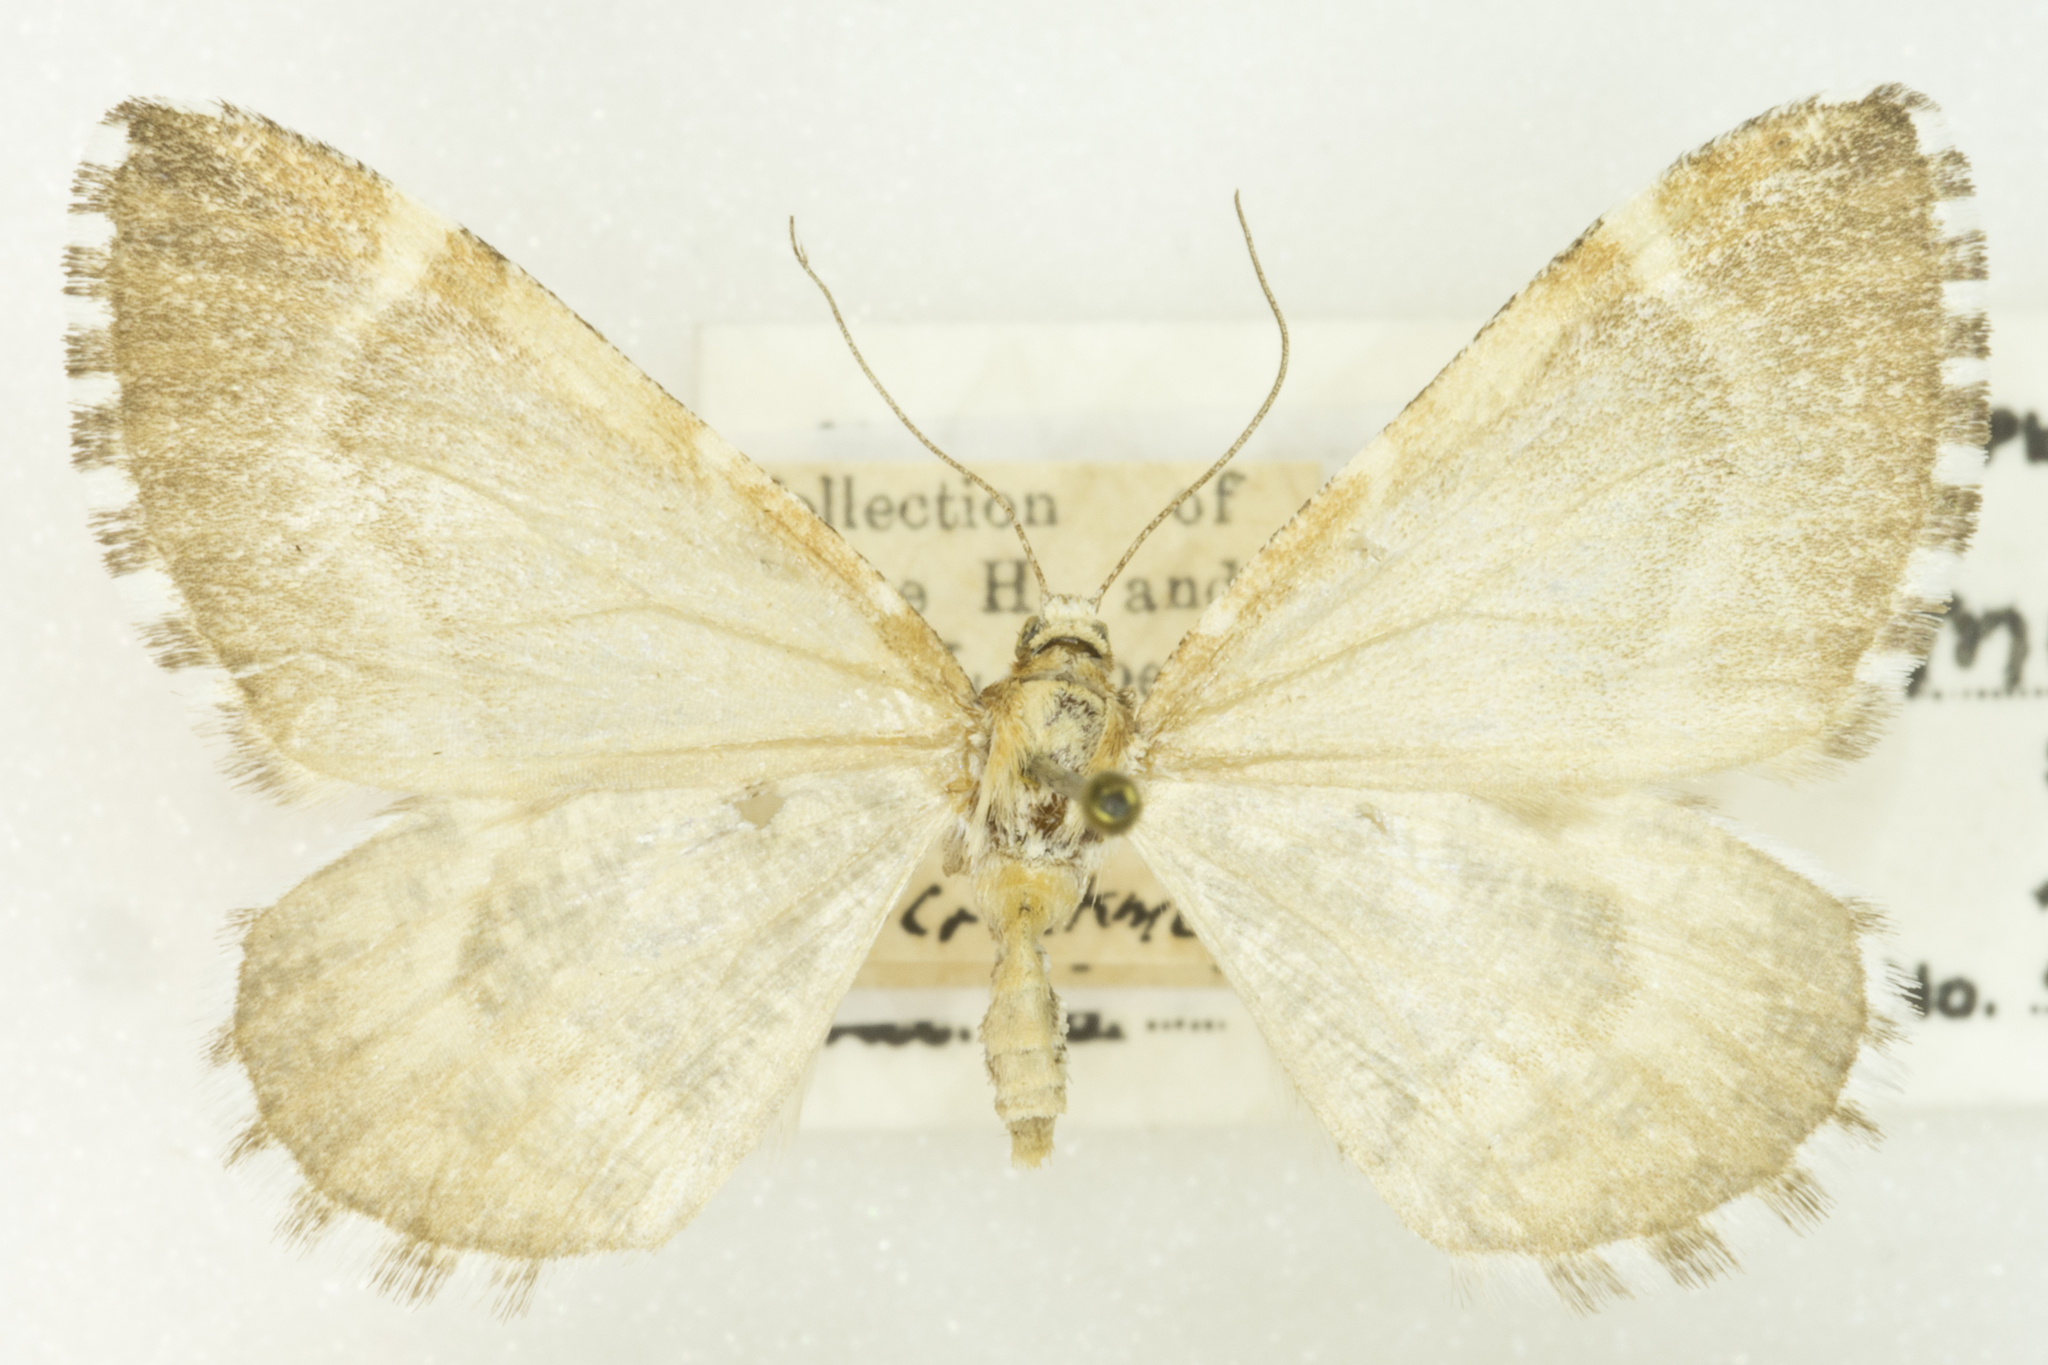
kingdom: Animalia
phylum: Arthropoda
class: Insecta
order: Lepidoptera
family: Geometridae
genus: Stamnodes
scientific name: Stamnodes marmorata
